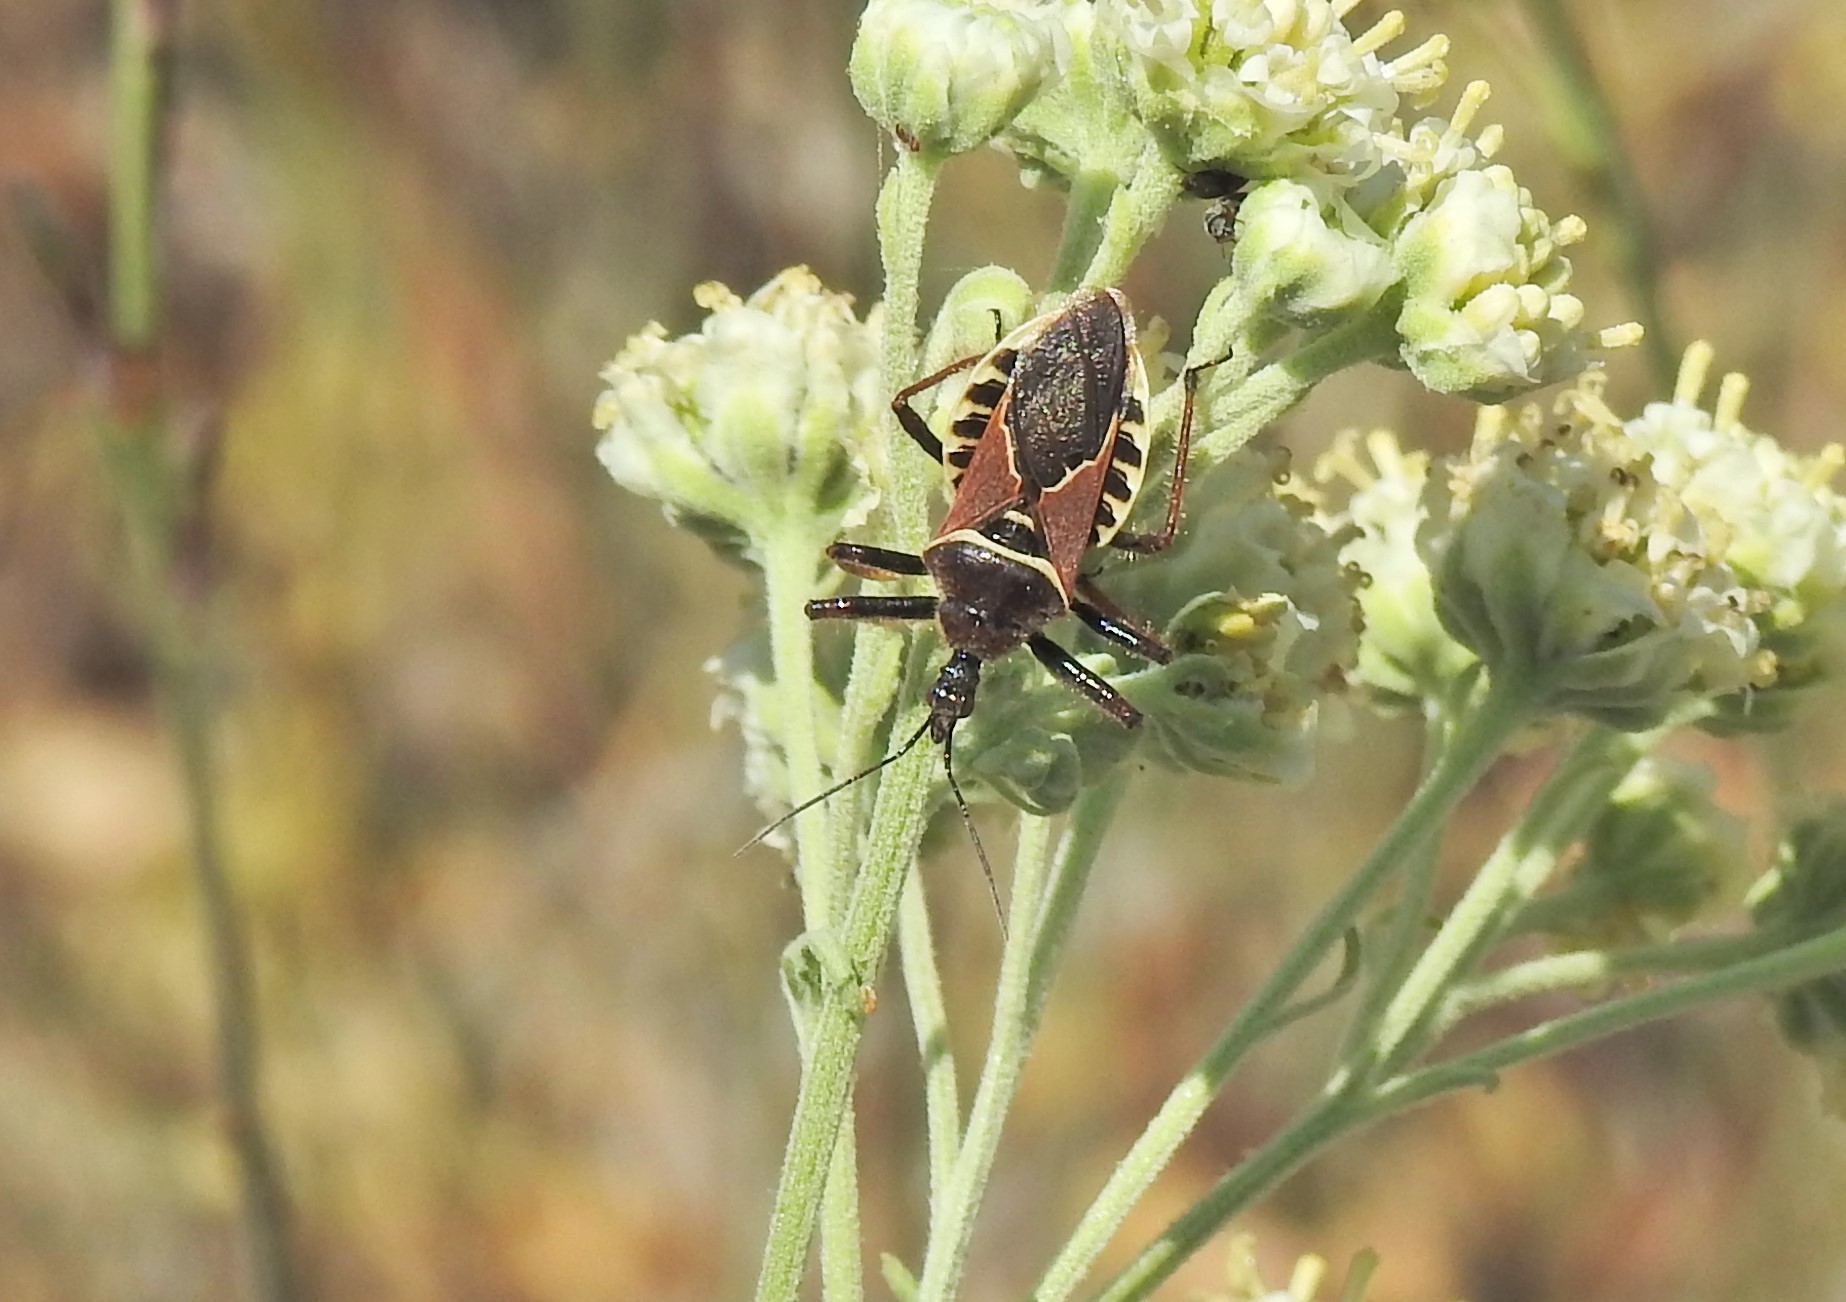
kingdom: Animalia
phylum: Arthropoda
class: Insecta
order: Hemiptera
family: Reduviidae
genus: Apiomerus
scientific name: Apiomerus spissipes
